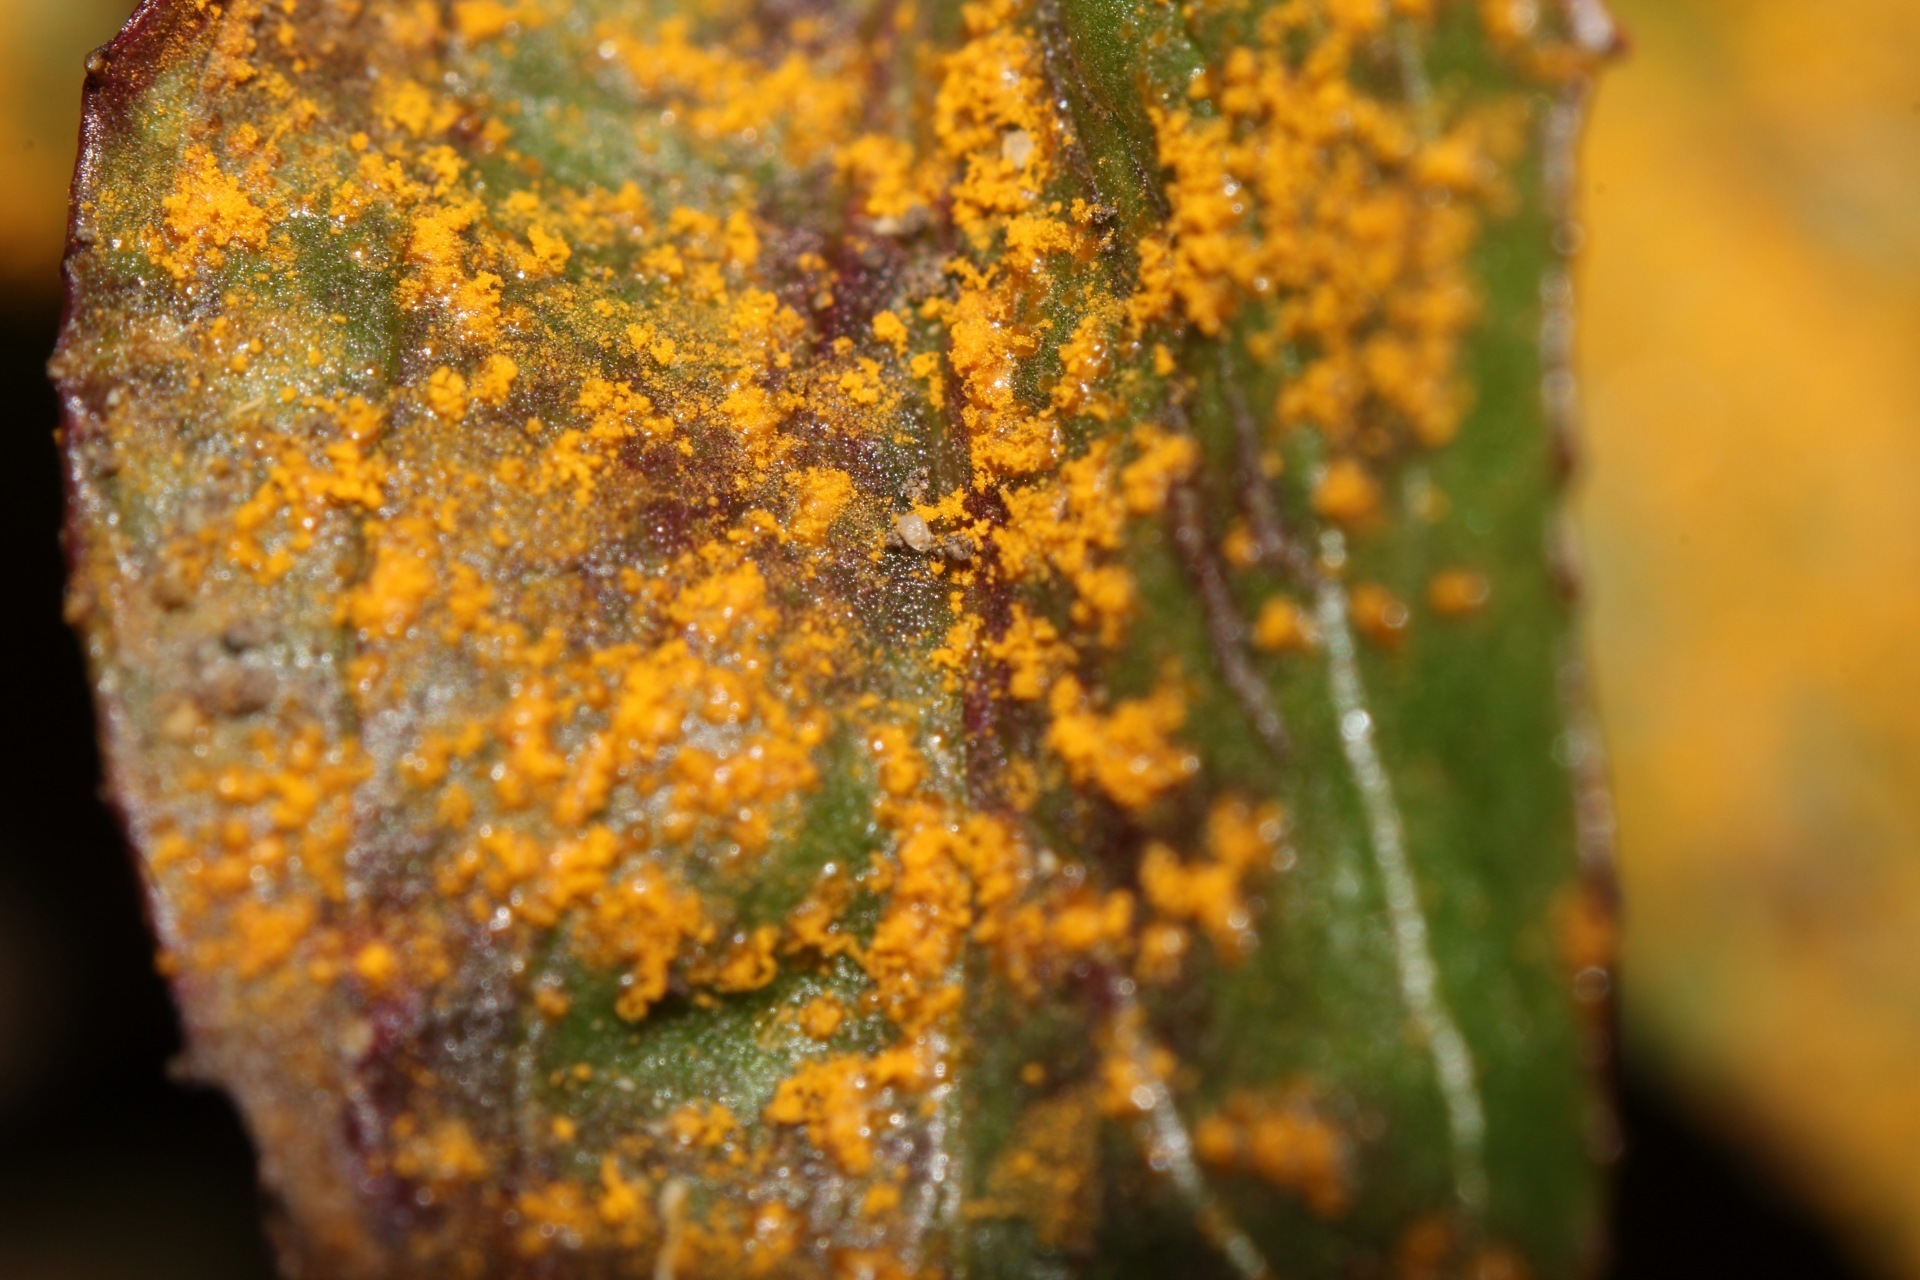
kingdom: Fungi
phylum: Basidiomycota
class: Pucciniomycetes
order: Pucciniales
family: Pucciniastraceae
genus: Pucciniastrum
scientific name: Pucciniastrum epilobii
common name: Fuchsia rust
